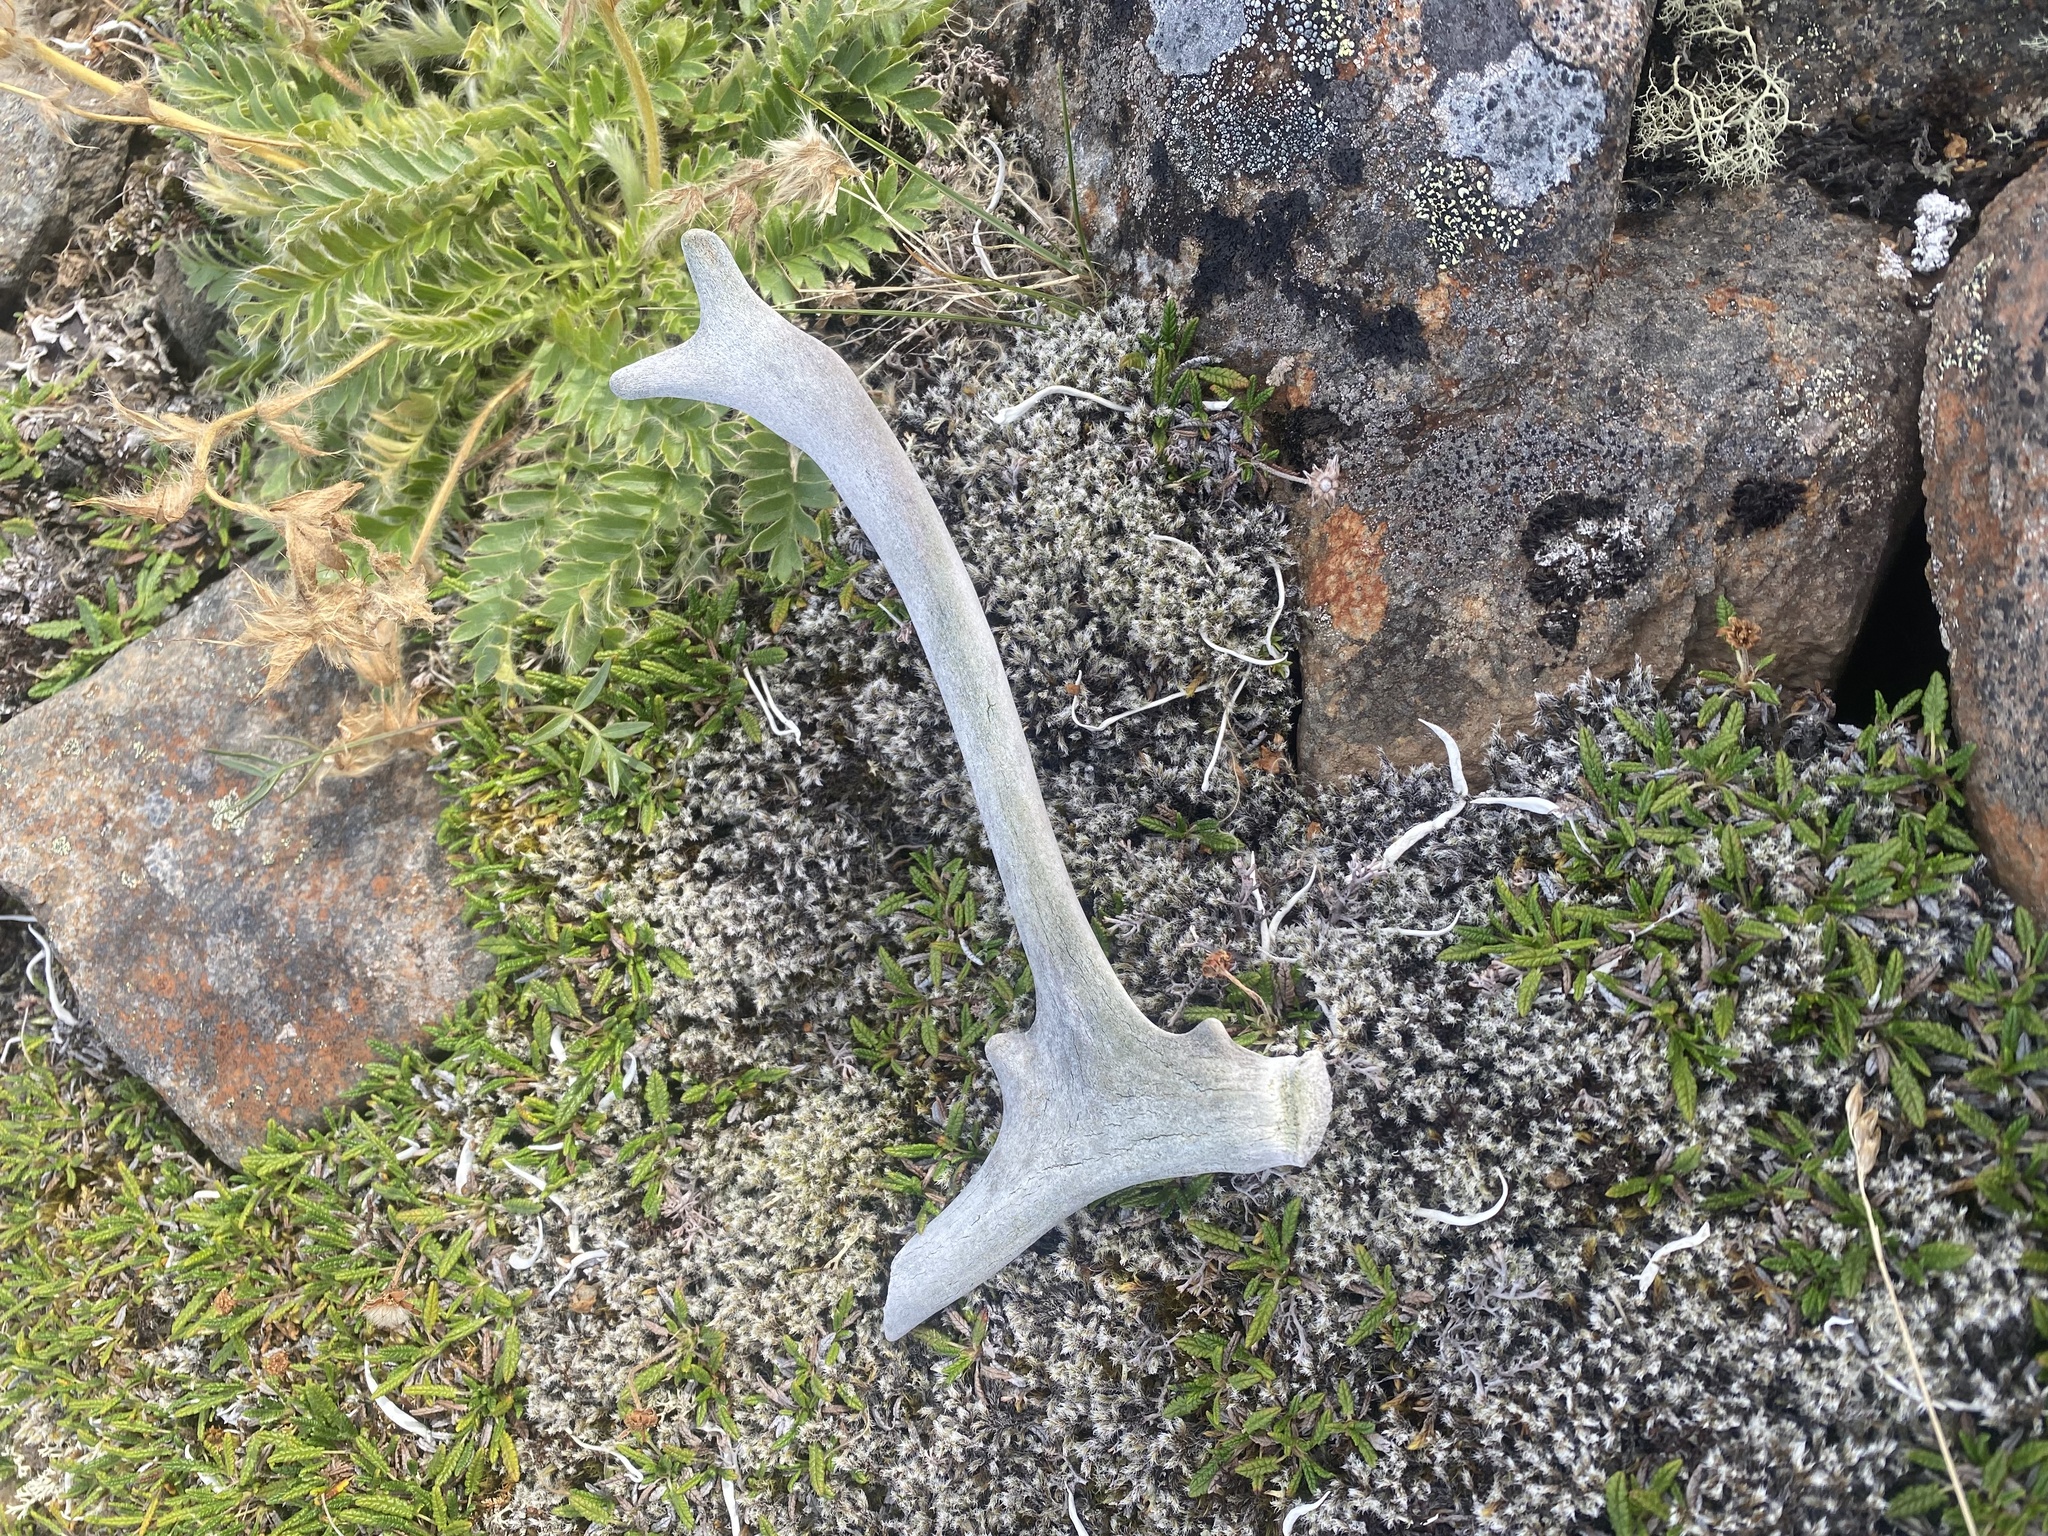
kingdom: Animalia
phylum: Chordata
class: Mammalia
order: Artiodactyla
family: Cervidae
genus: Rangifer
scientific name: Rangifer tarandus
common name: Reindeer
